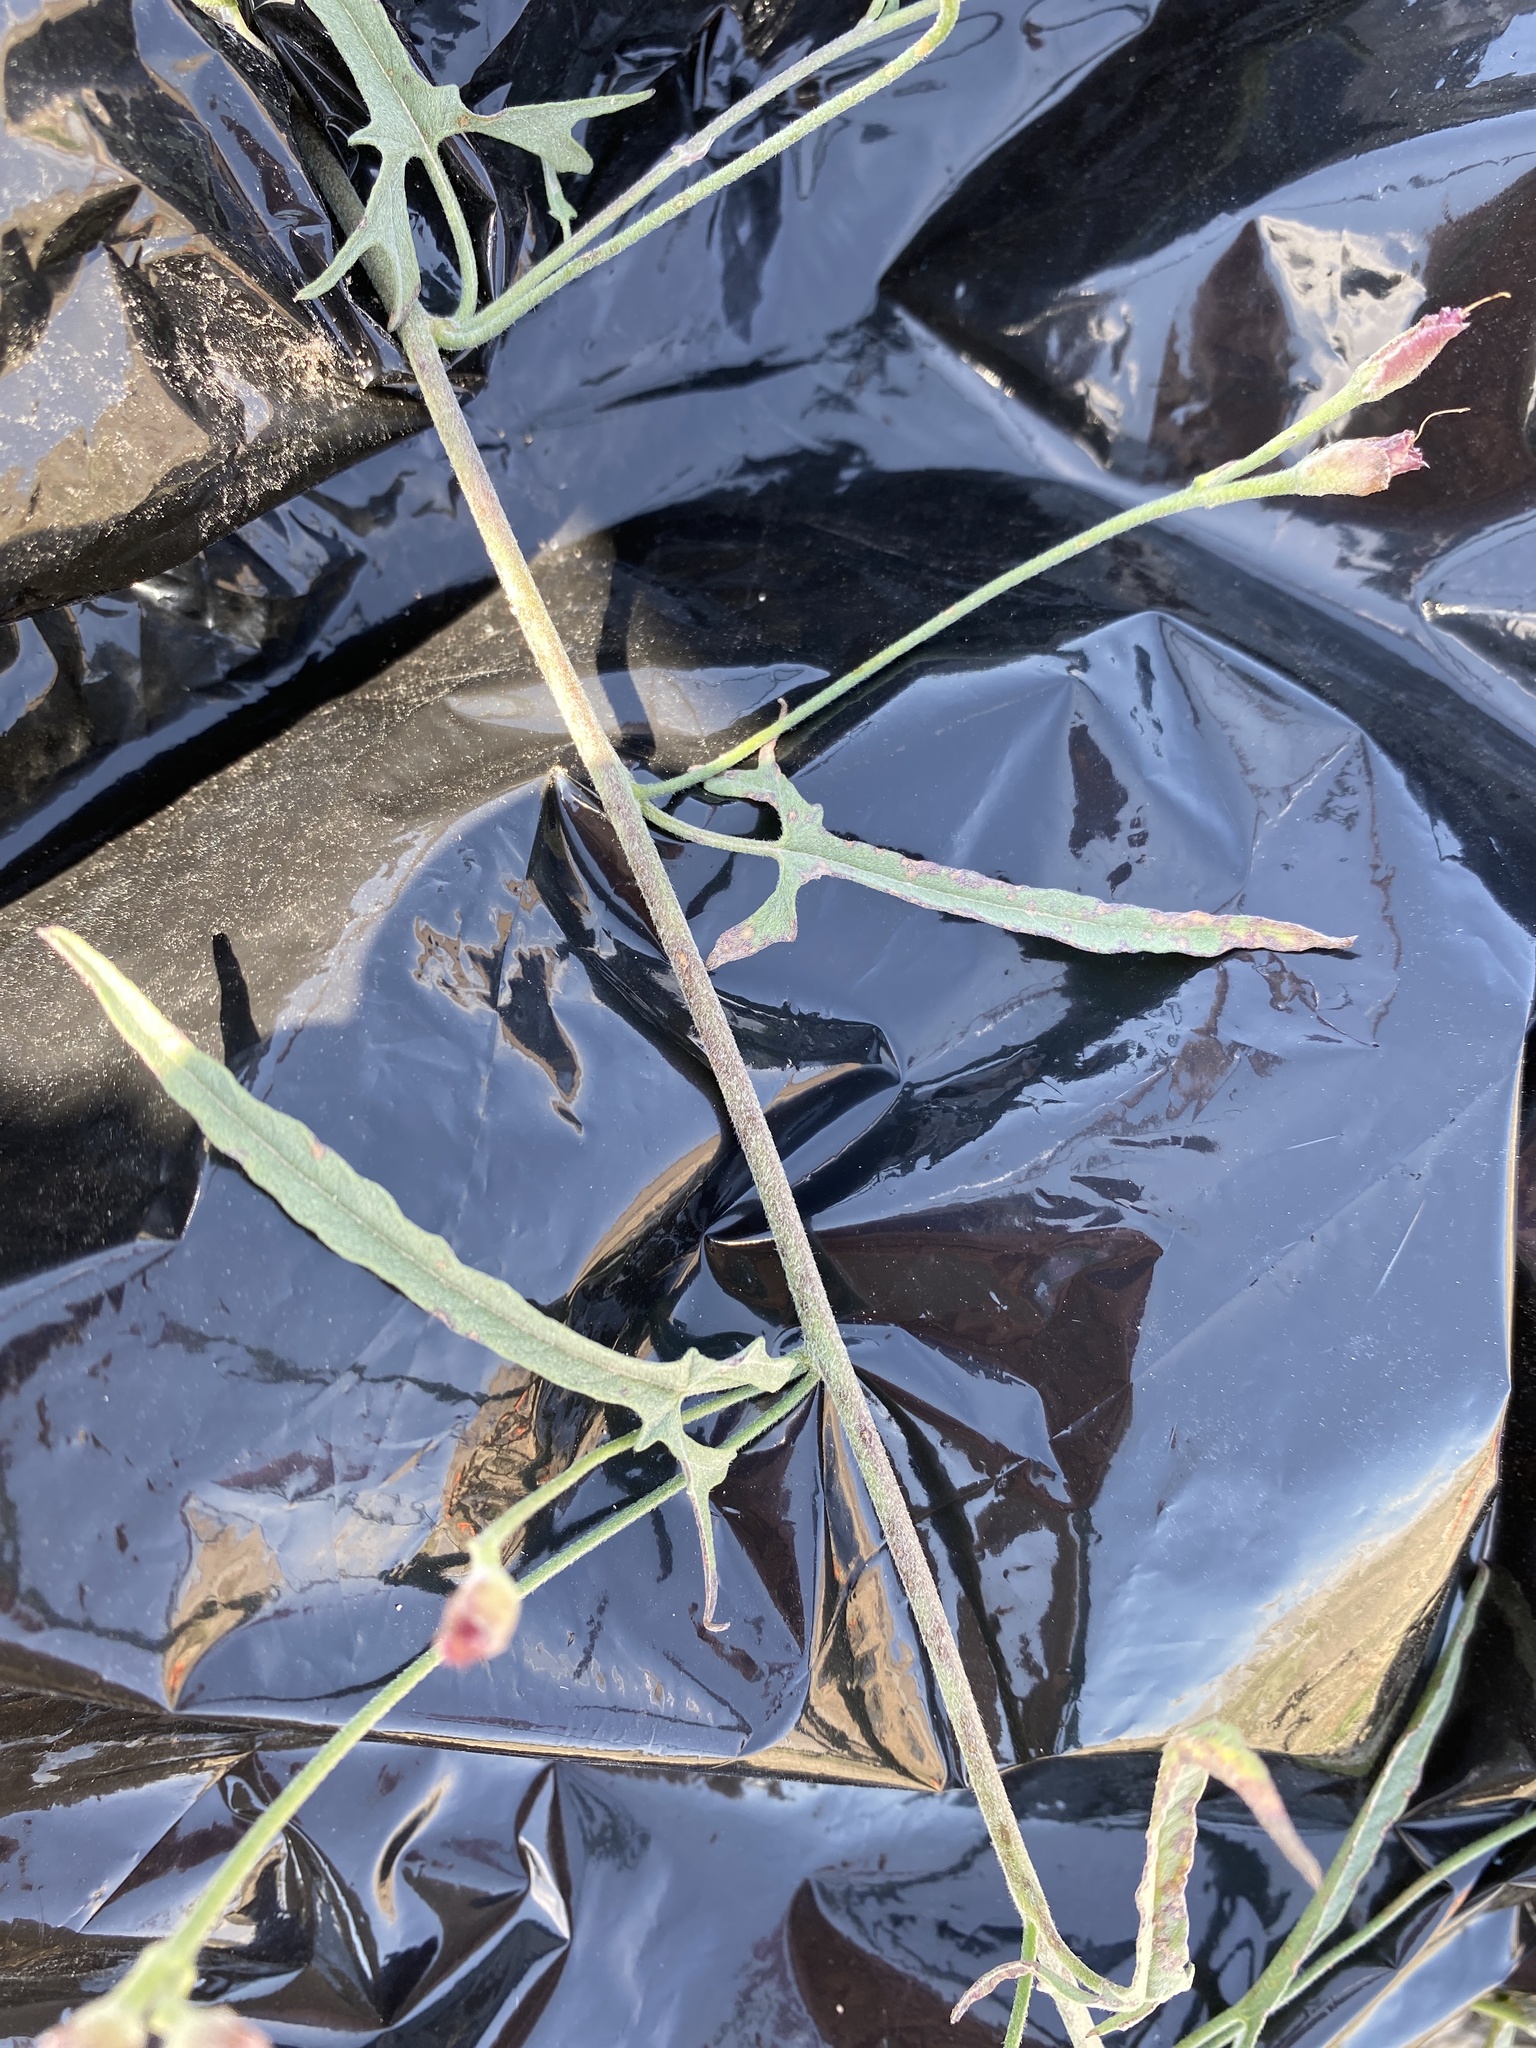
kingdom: Plantae
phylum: Tracheophyta
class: Magnoliopsida
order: Solanales
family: Convolvulaceae
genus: Convolvulus
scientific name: Convolvulus equitans
